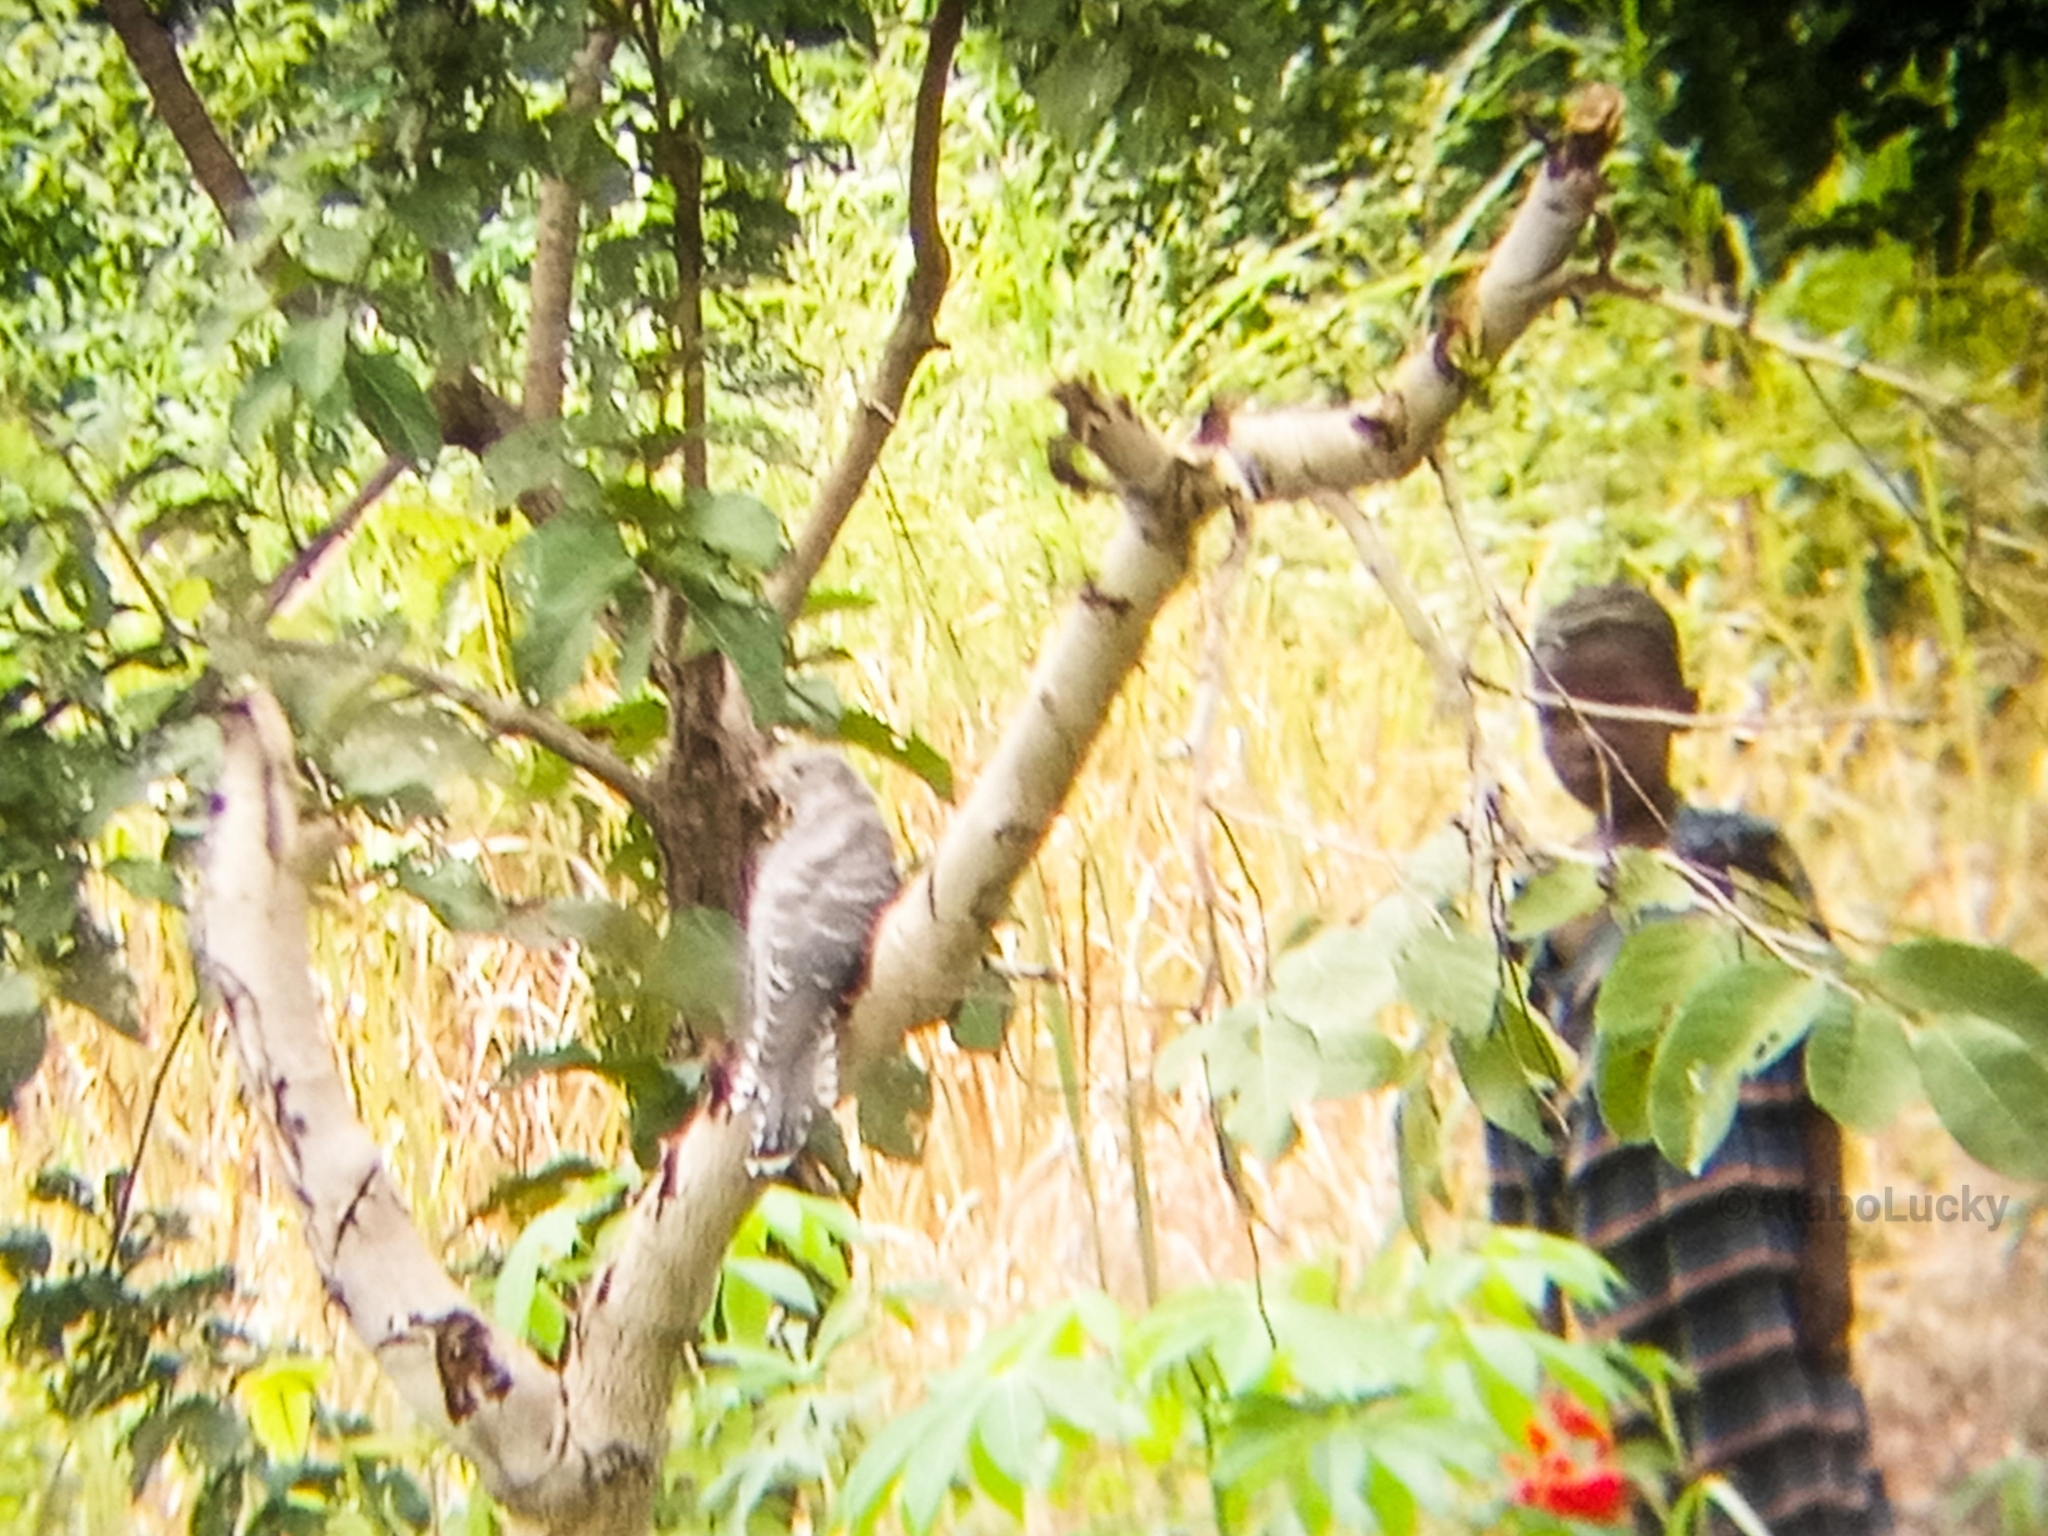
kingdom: Animalia
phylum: Chordata
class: Aves
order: Cuculiformes
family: Cuculidae
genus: Cuculus
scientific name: Cuculus canorus
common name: Common cuckoo
